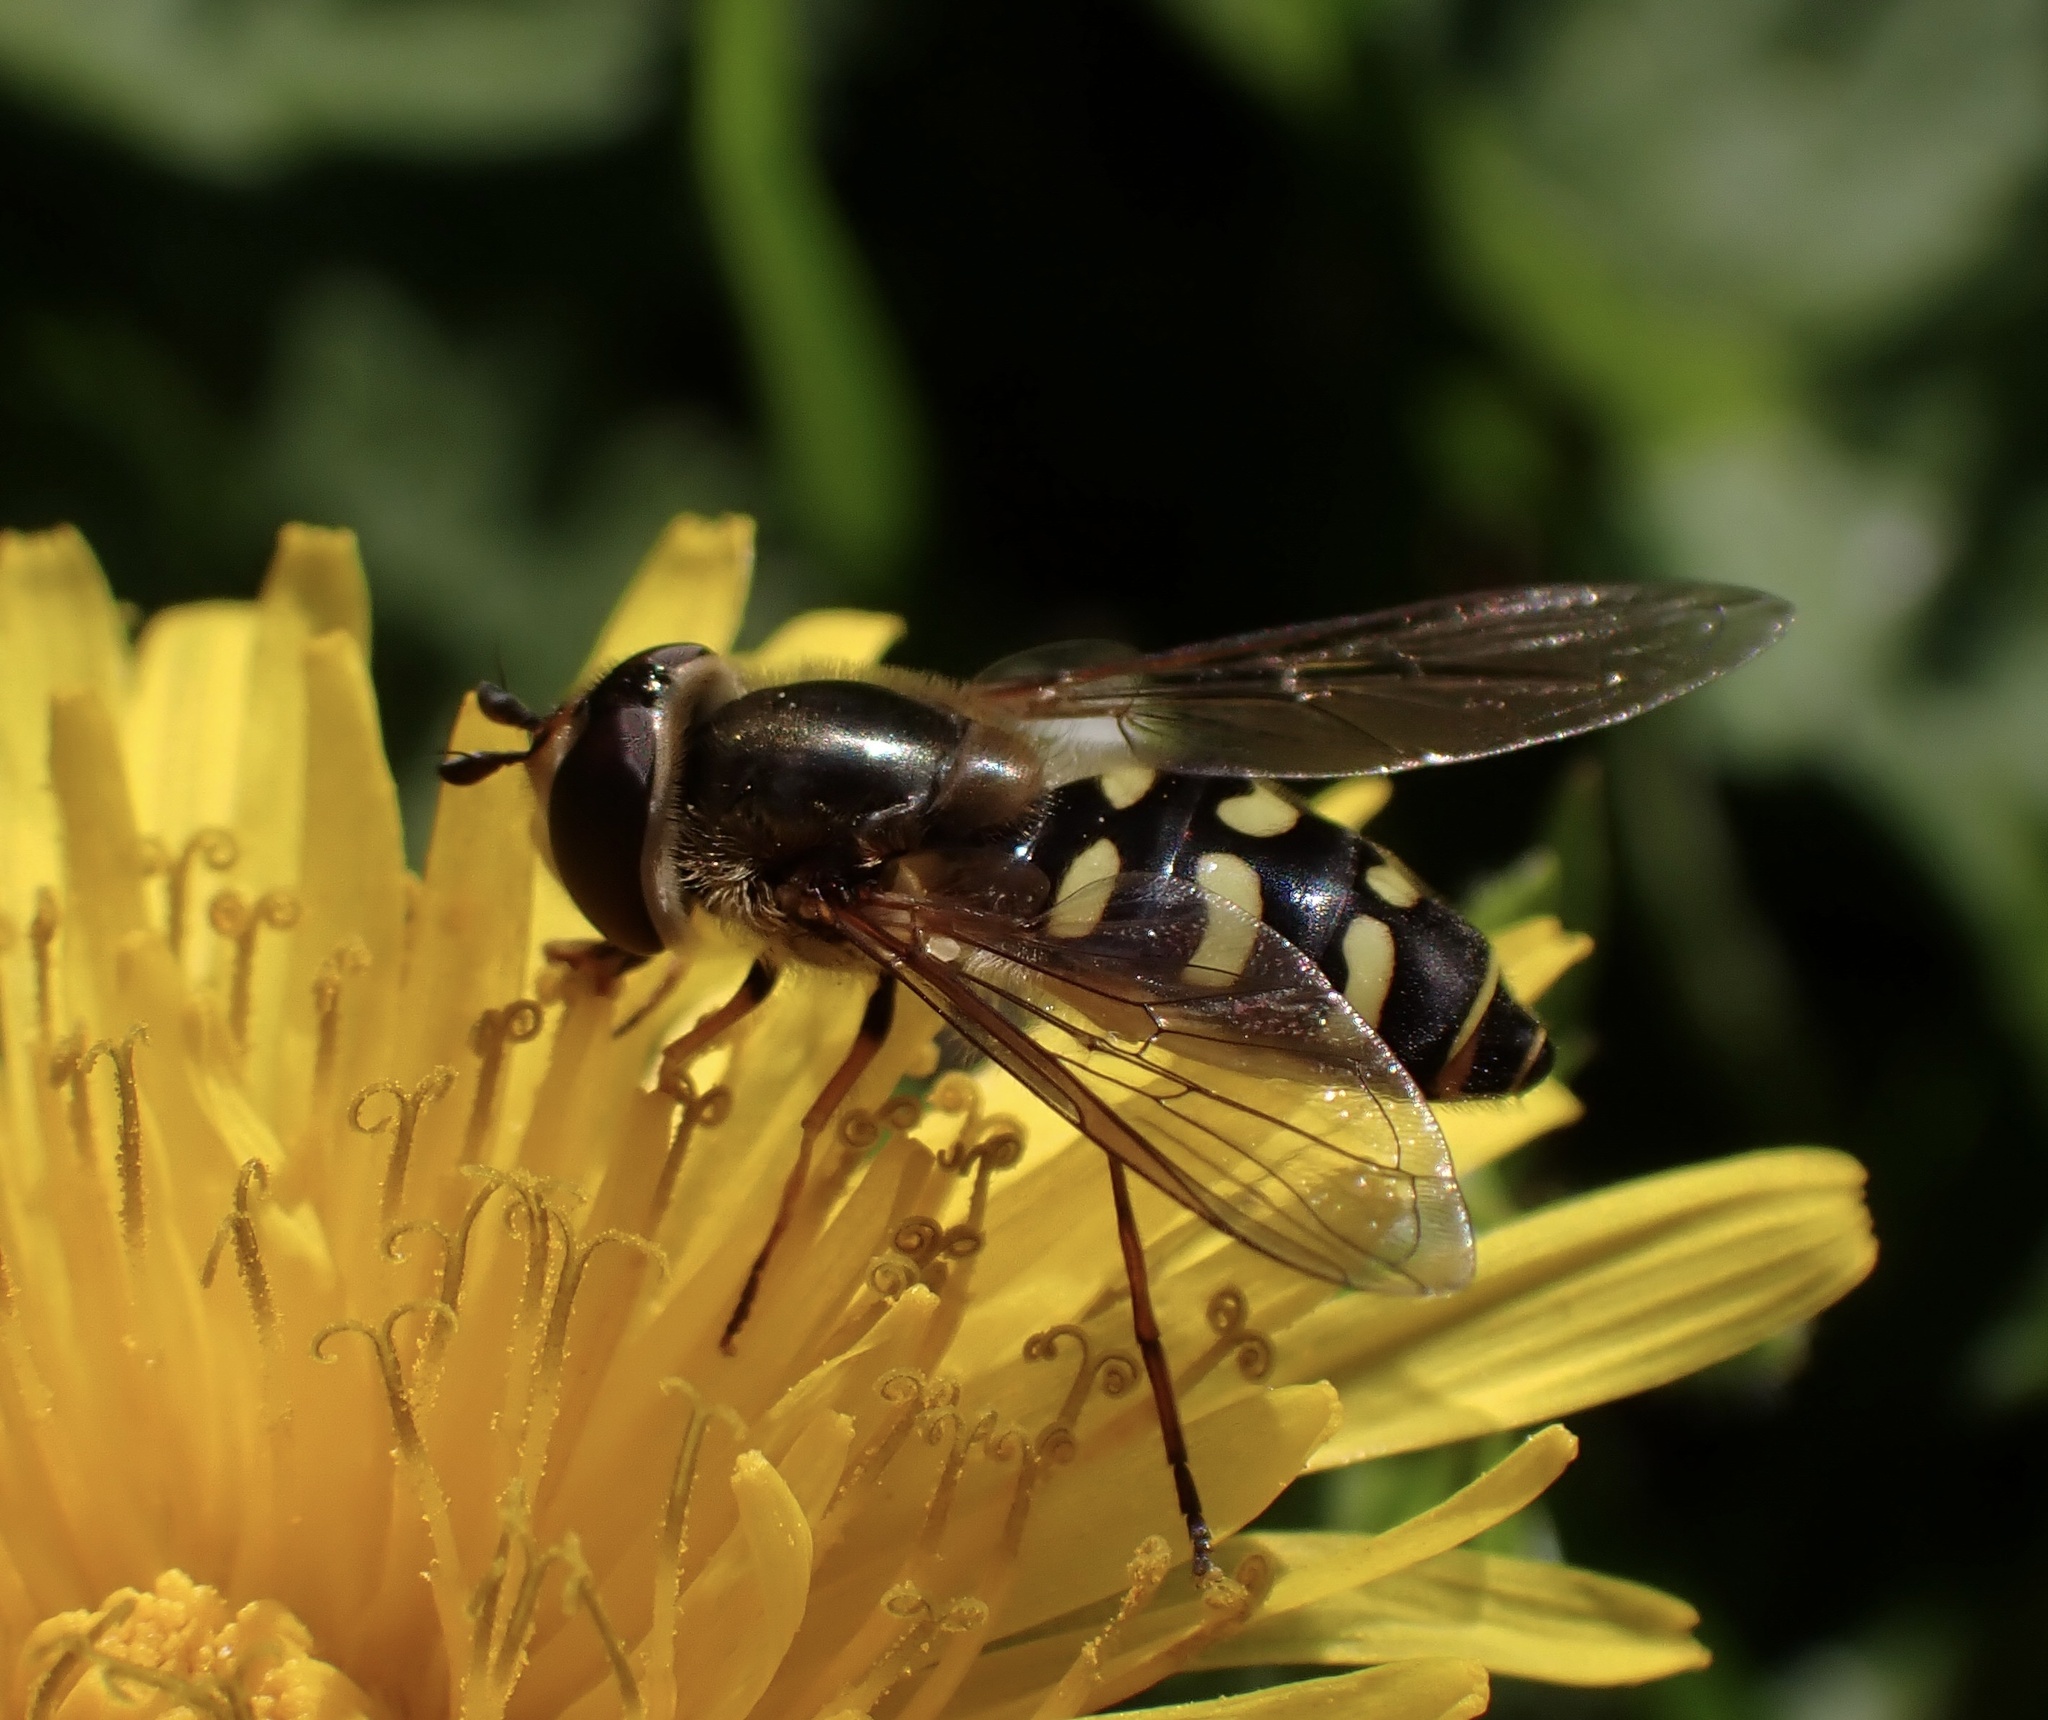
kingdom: Animalia
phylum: Arthropoda
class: Insecta
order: Diptera
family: Syrphidae
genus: Eupeodes
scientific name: Eupeodes
